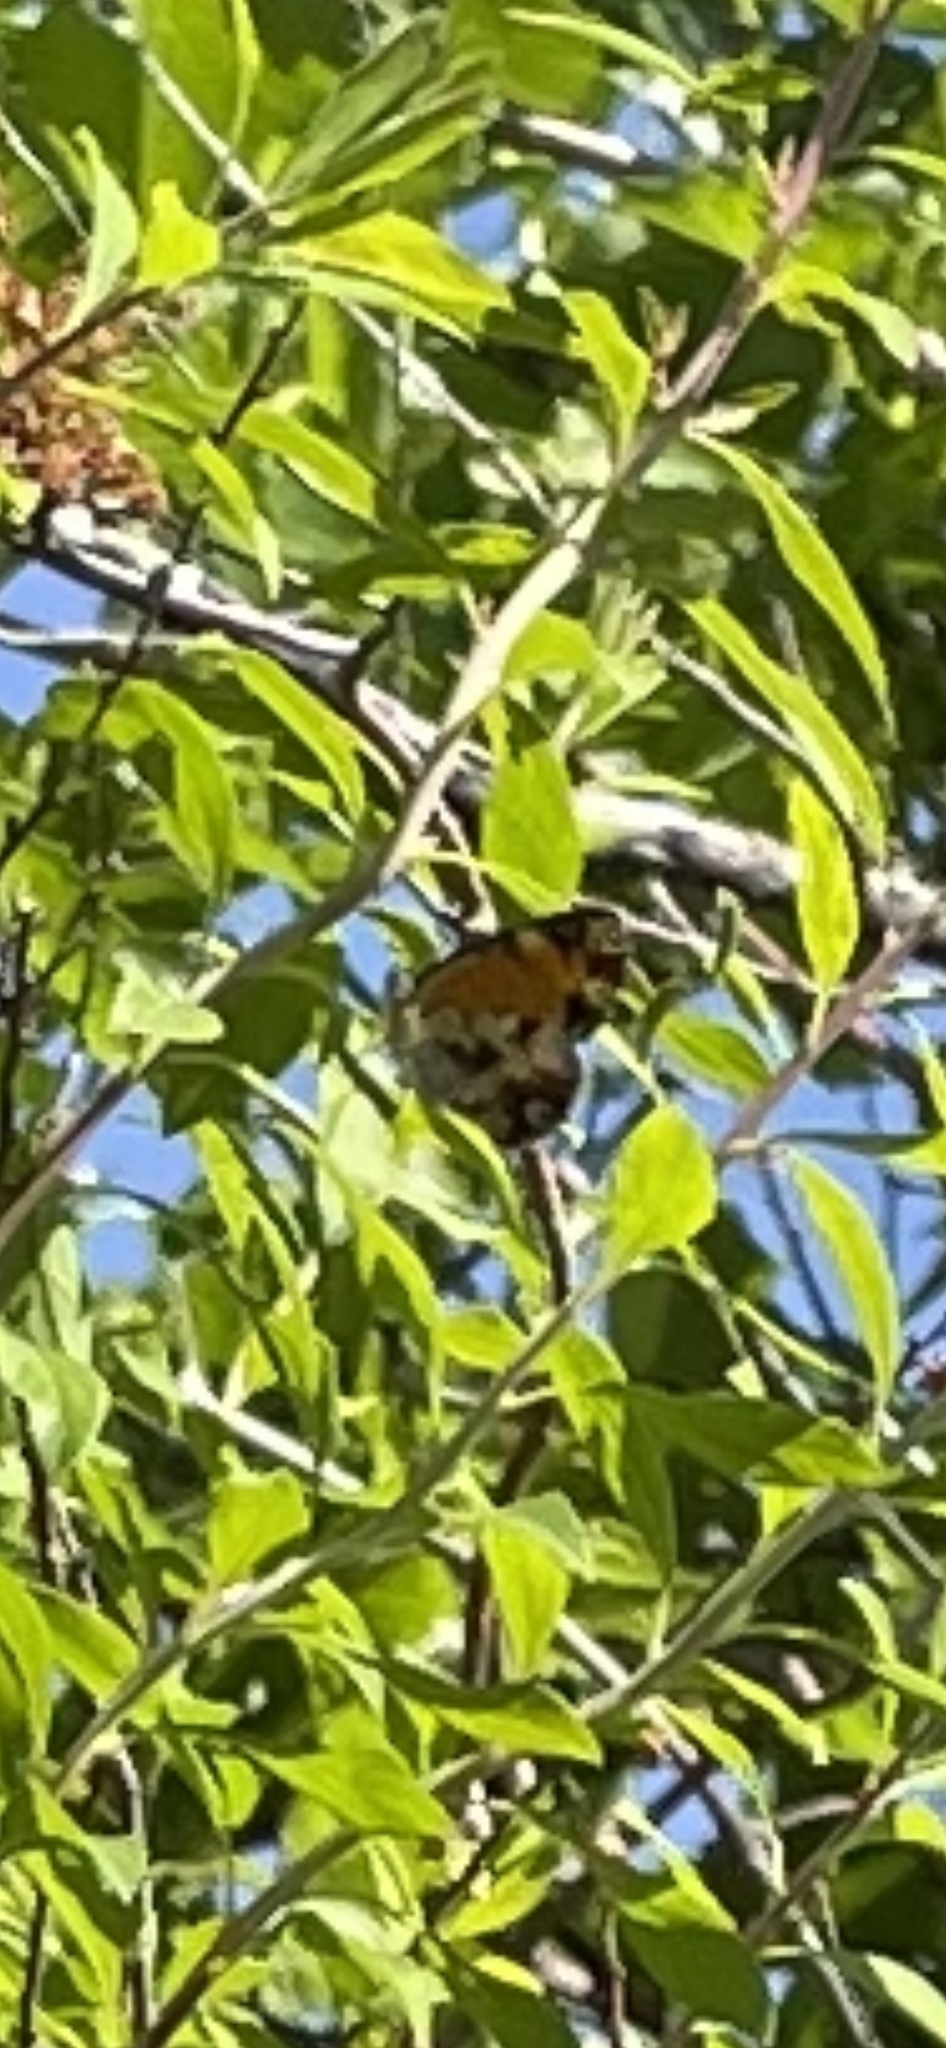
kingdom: Animalia
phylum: Arthropoda
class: Insecta
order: Lepidoptera
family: Nymphalidae
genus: Phyciodes
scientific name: Phyciodes tharos
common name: Pearl crescent
